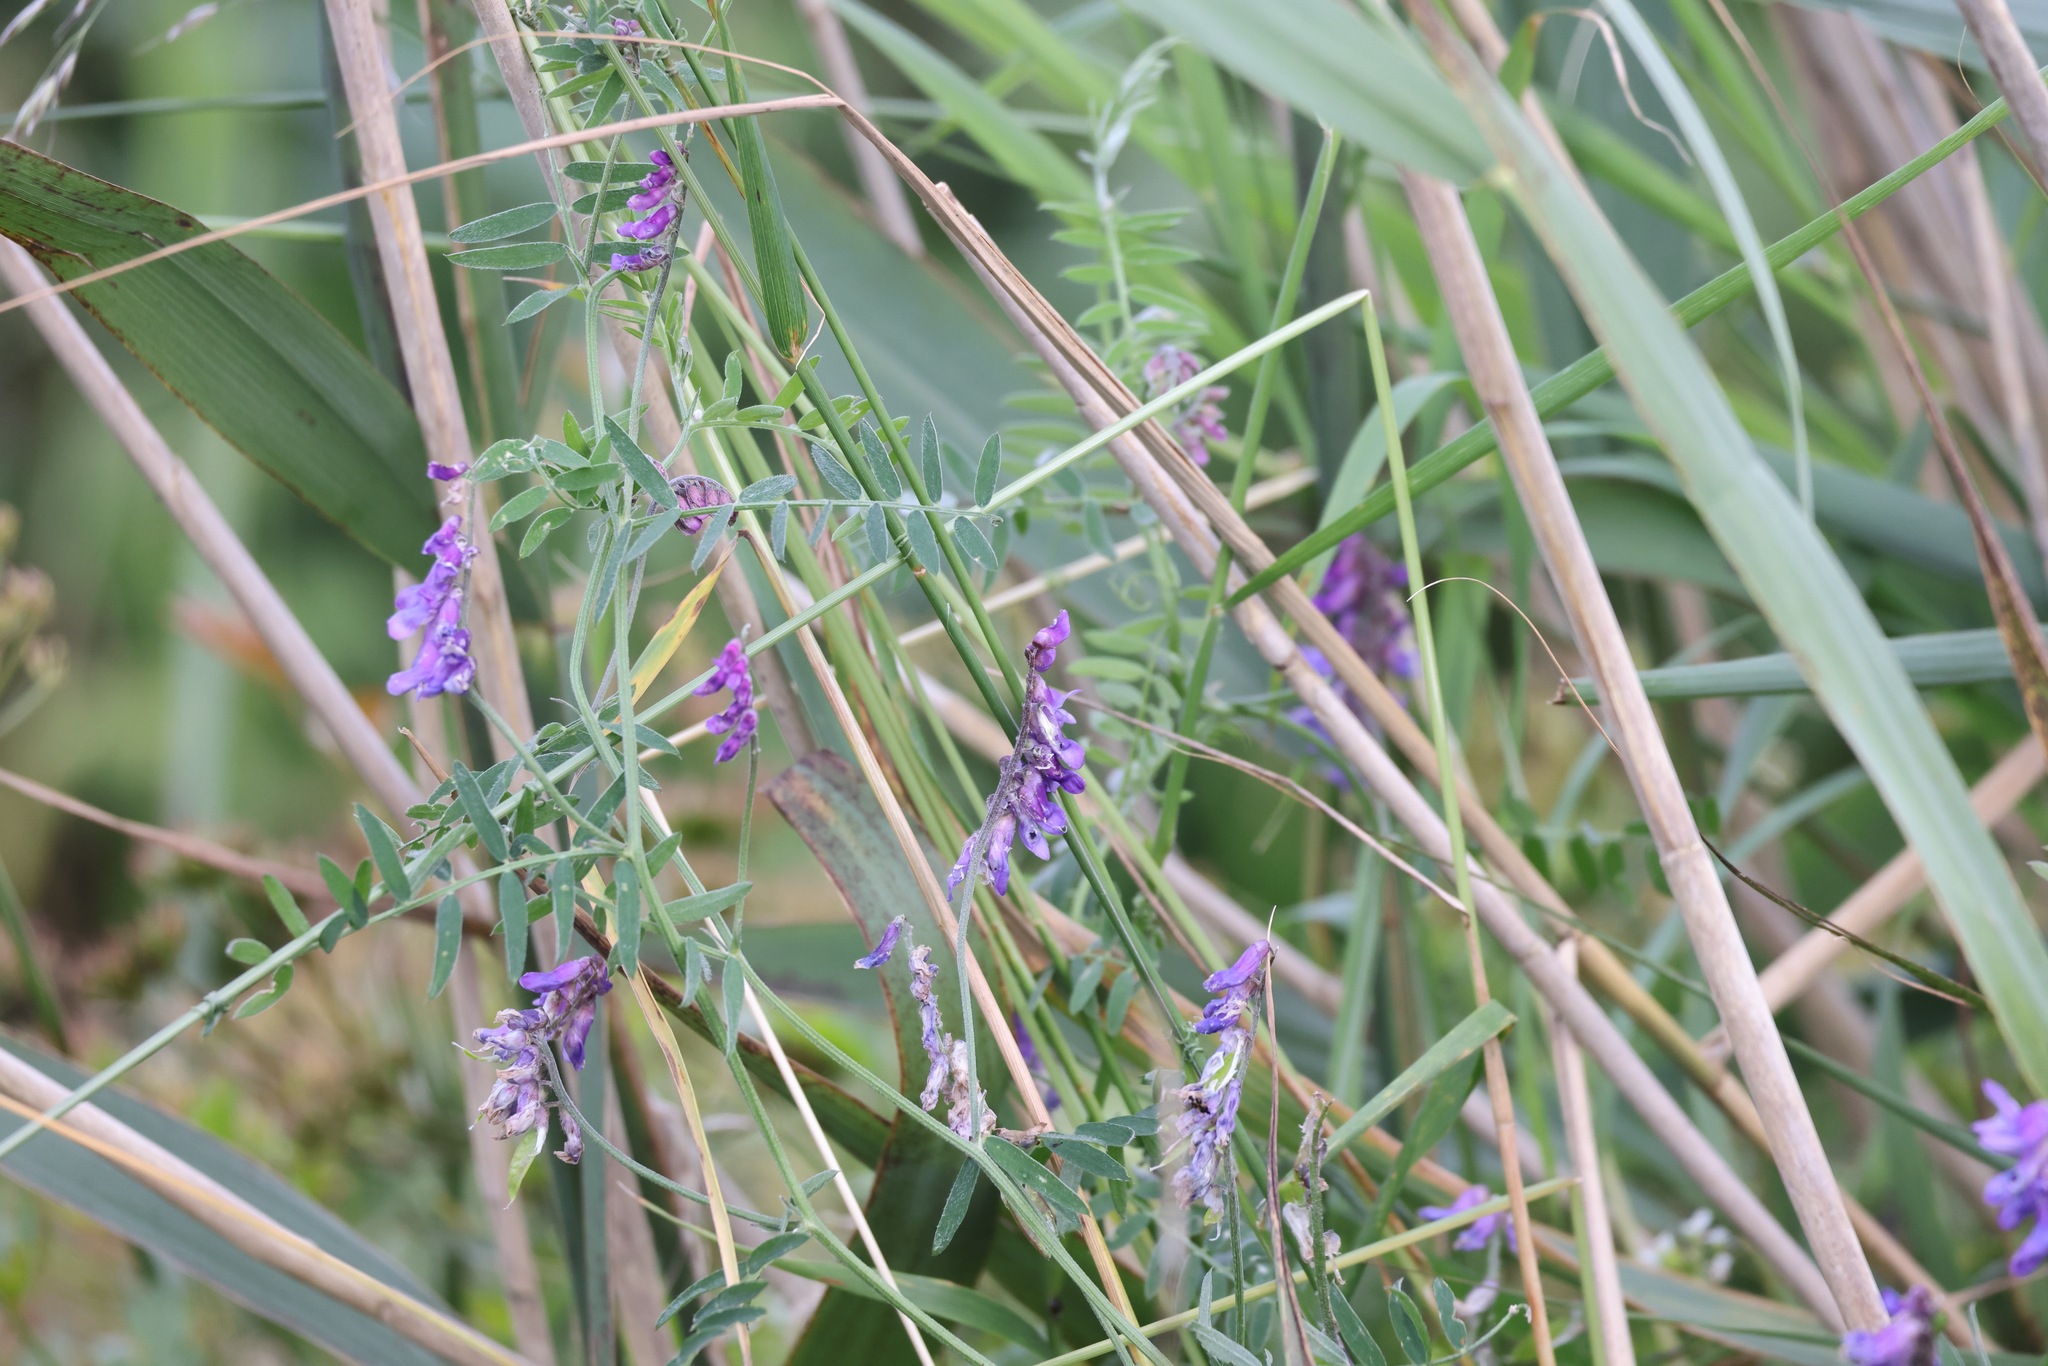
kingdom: Plantae
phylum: Tracheophyta
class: Magnoliopsida
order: Fabales
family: Fabaceae
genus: Vicia
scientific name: Vicia cracca
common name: Bird vetch
